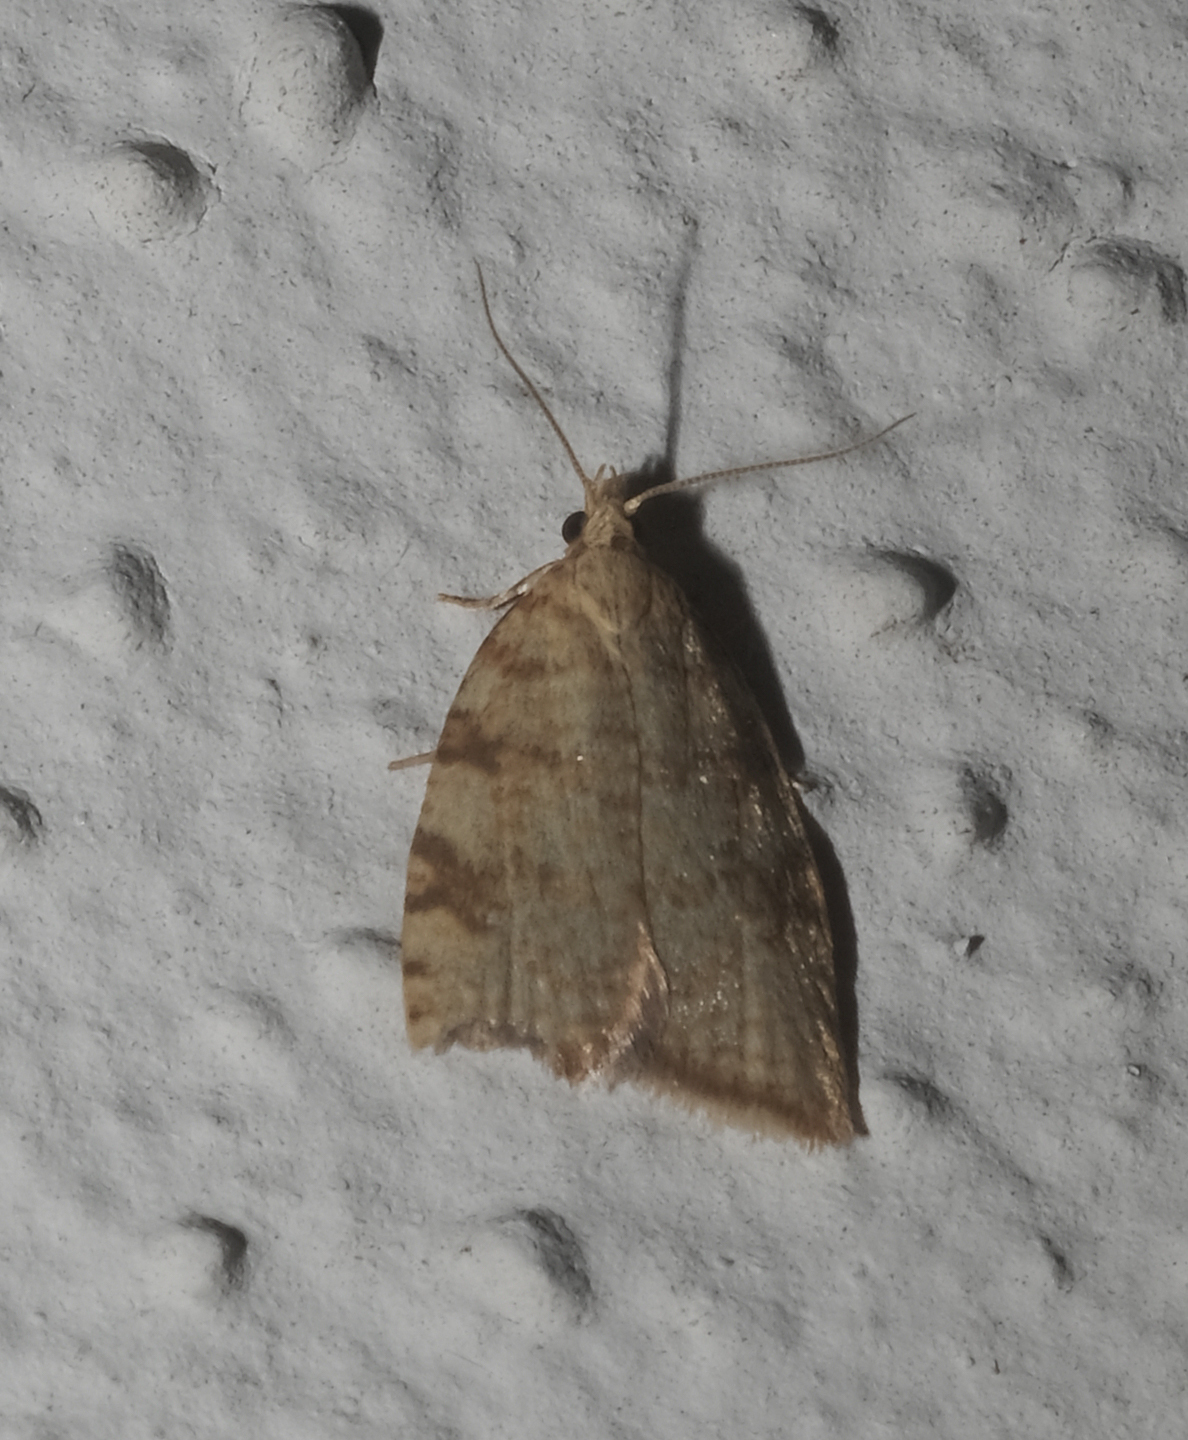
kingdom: Animalia
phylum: Arthropoda
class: Insecta
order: Lepidoptera
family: Tortricidae
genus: Aleimma
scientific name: Aleimma loeflingiana
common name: Yellow oak button
